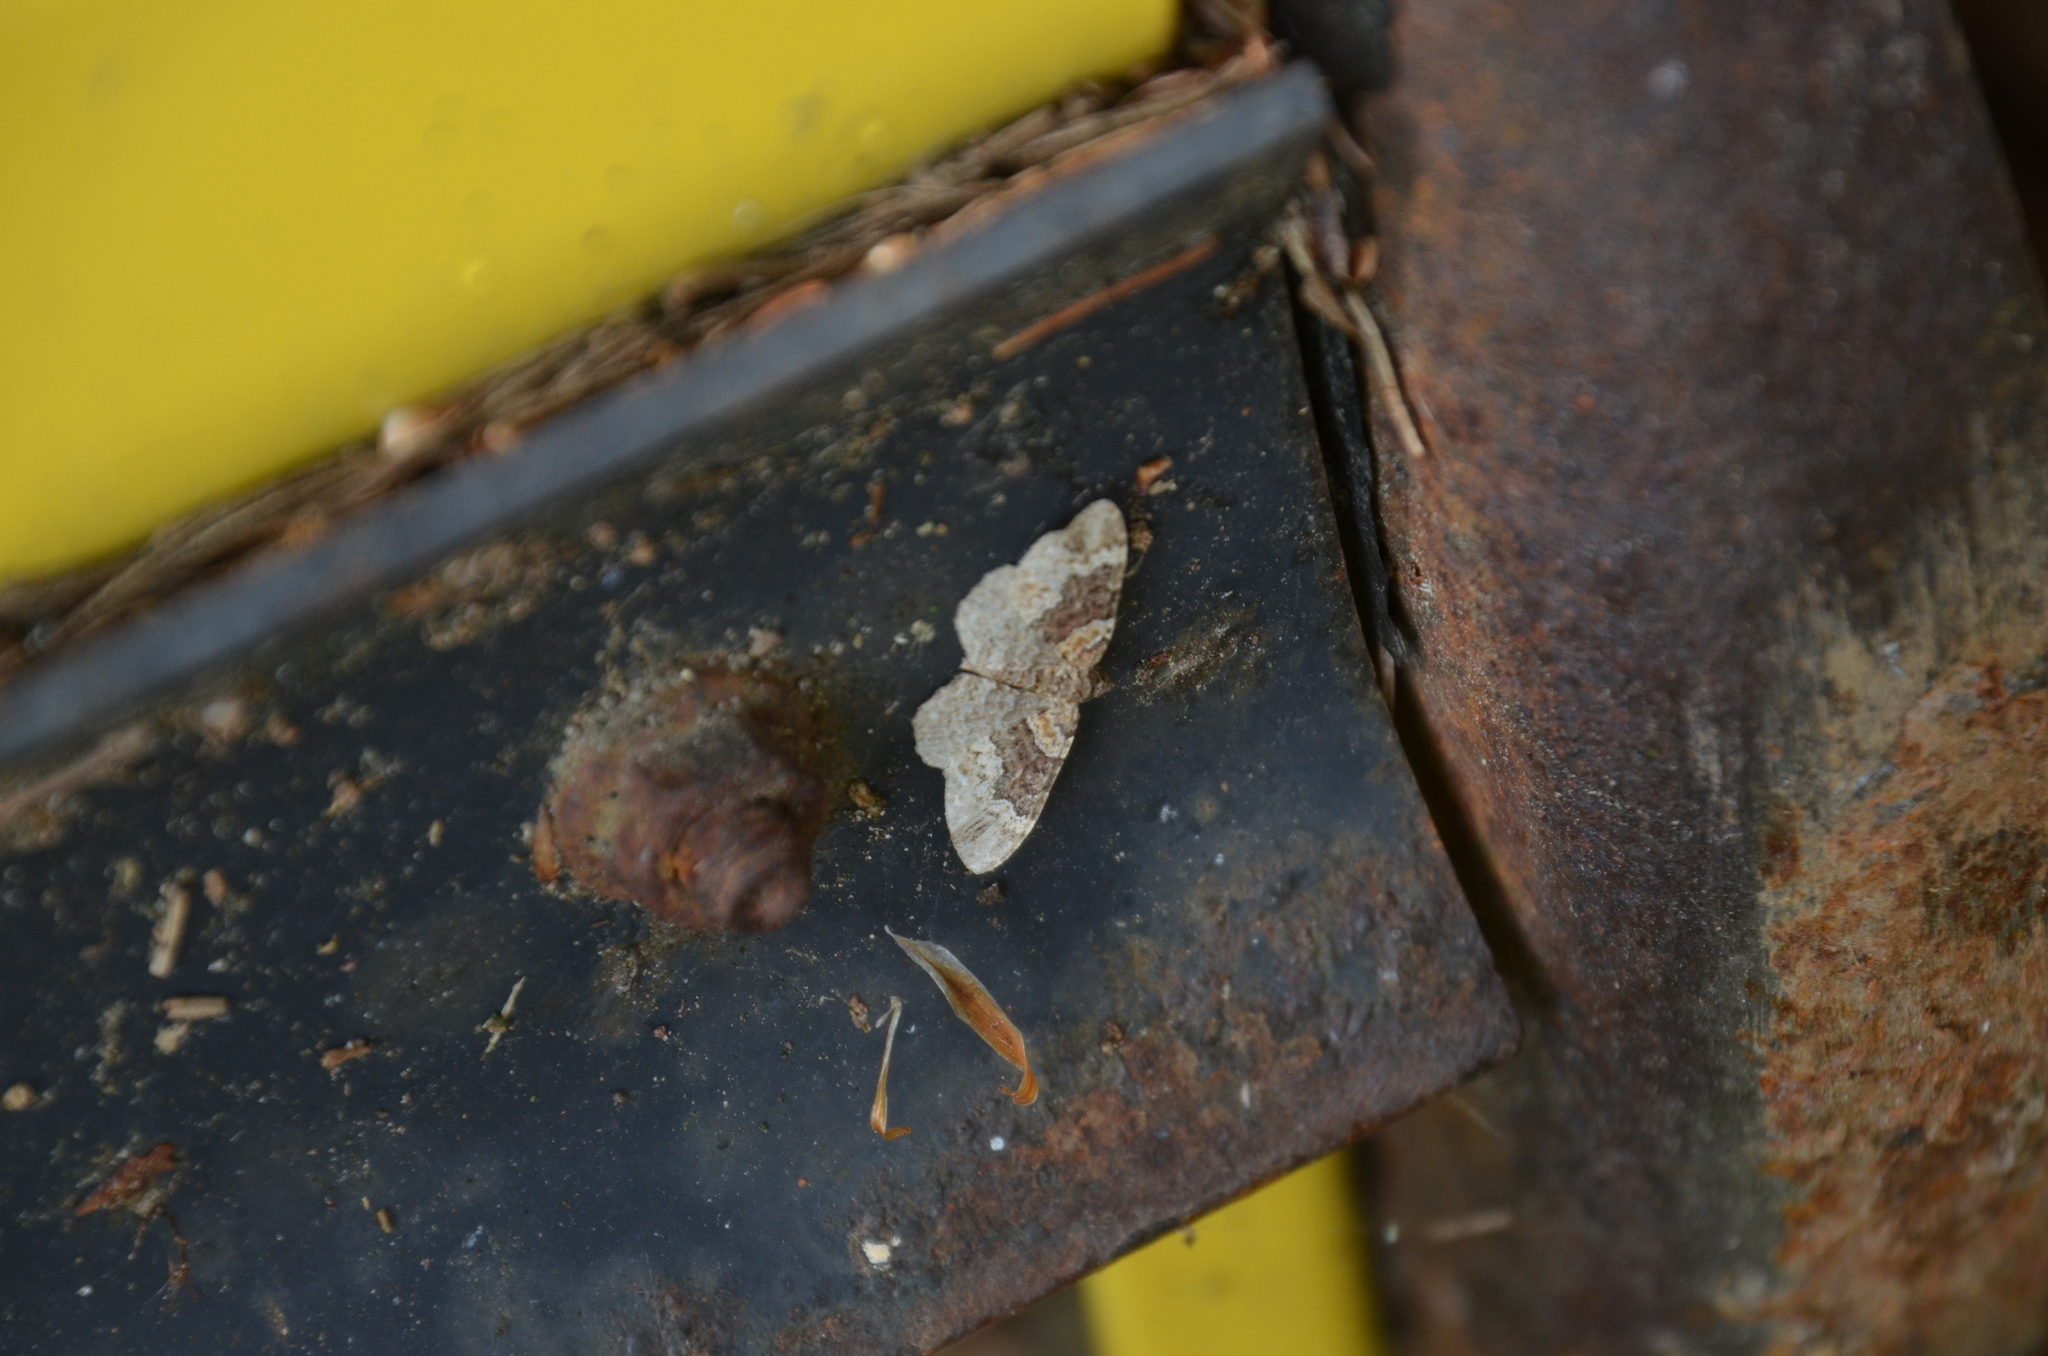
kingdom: Animalia
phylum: Arthropoda
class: Insecta
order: Lepidoptera
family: Geometridae
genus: Costaconvexa
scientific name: Costaconvexa centrostrigaria
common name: Bent-line carpet
